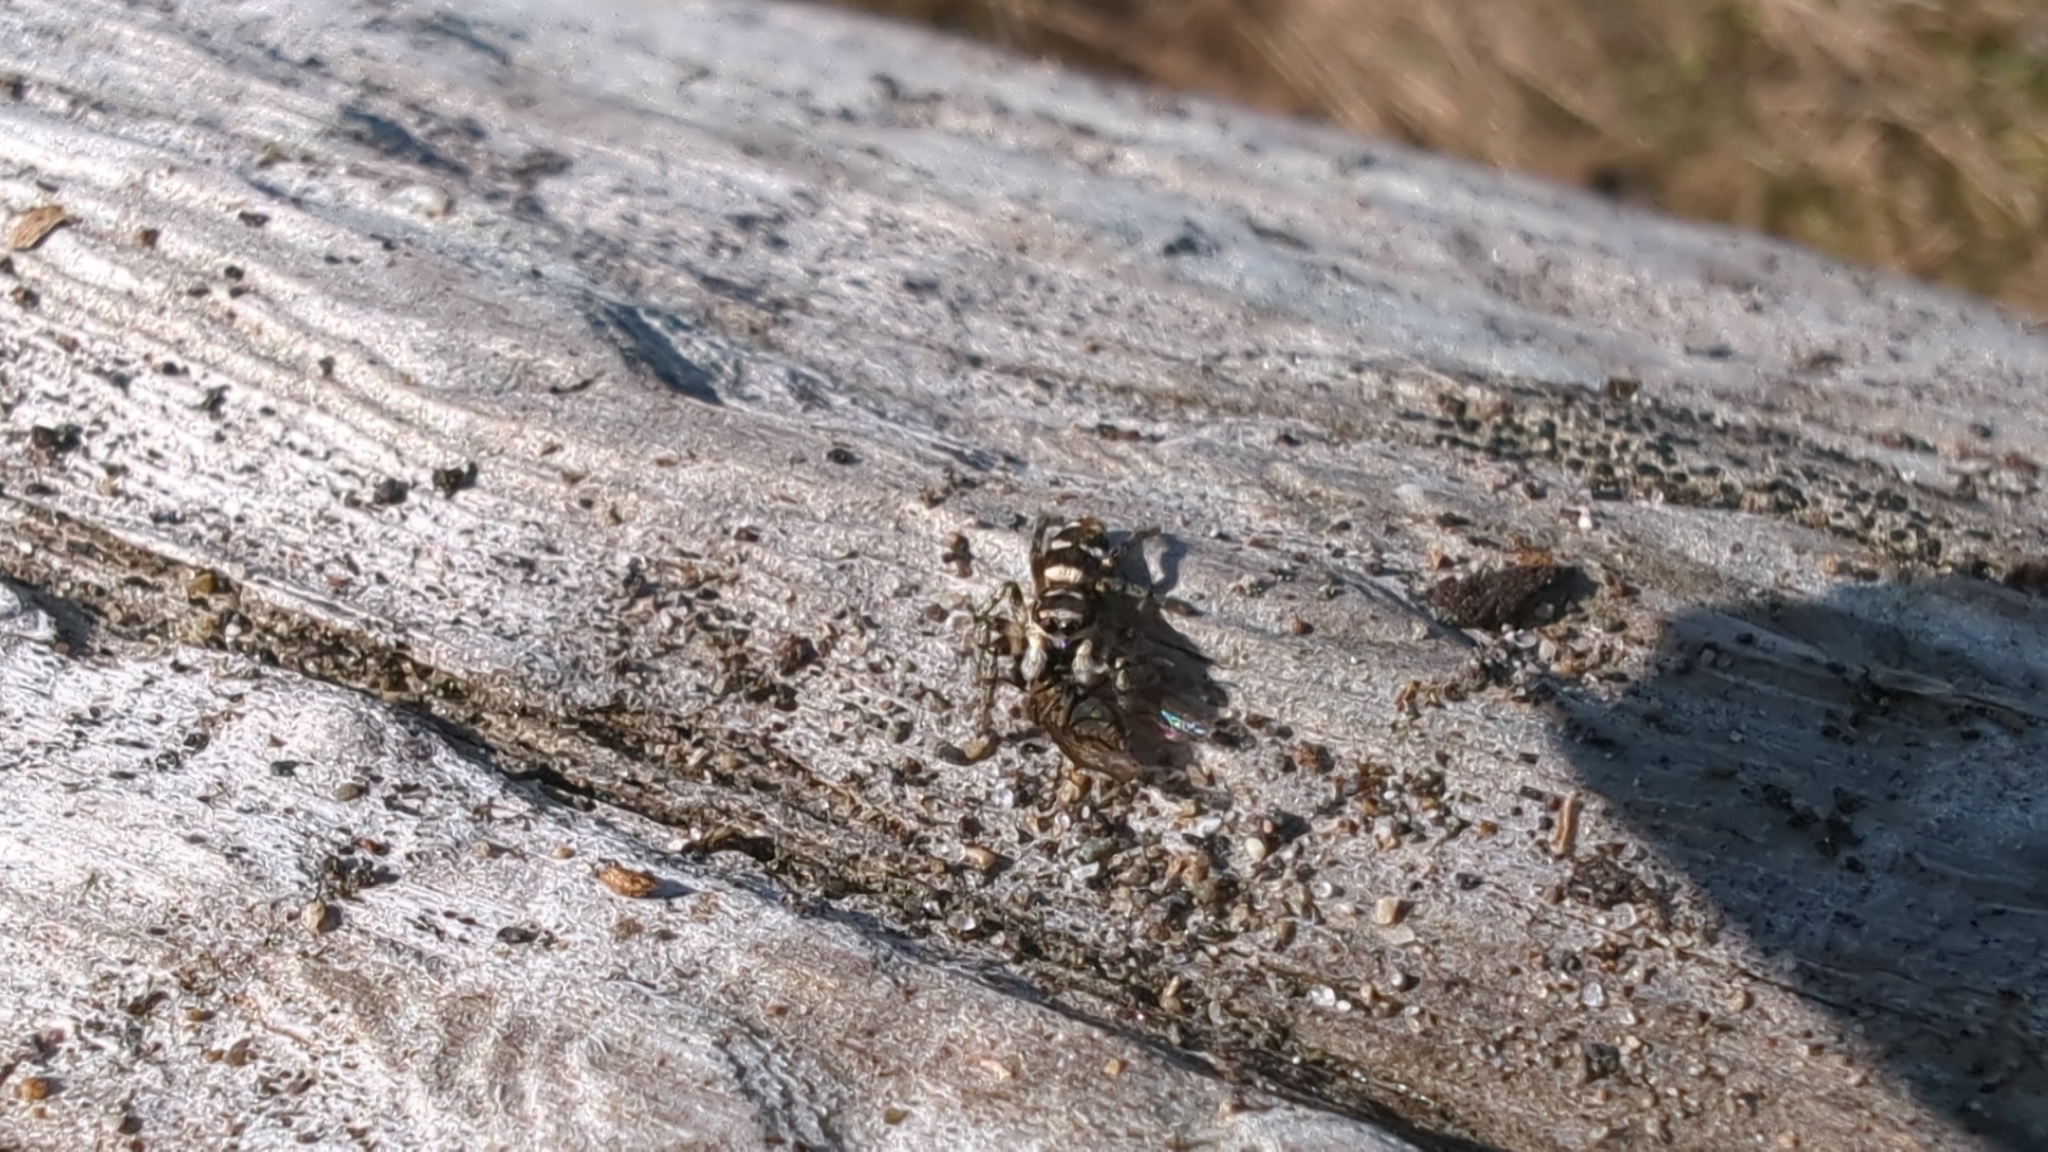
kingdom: Animalia
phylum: Arthropoda
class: Arachnida
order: Araneae
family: Salticidae
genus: Salticus
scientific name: Salticus scenicus
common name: Zebra jumper
